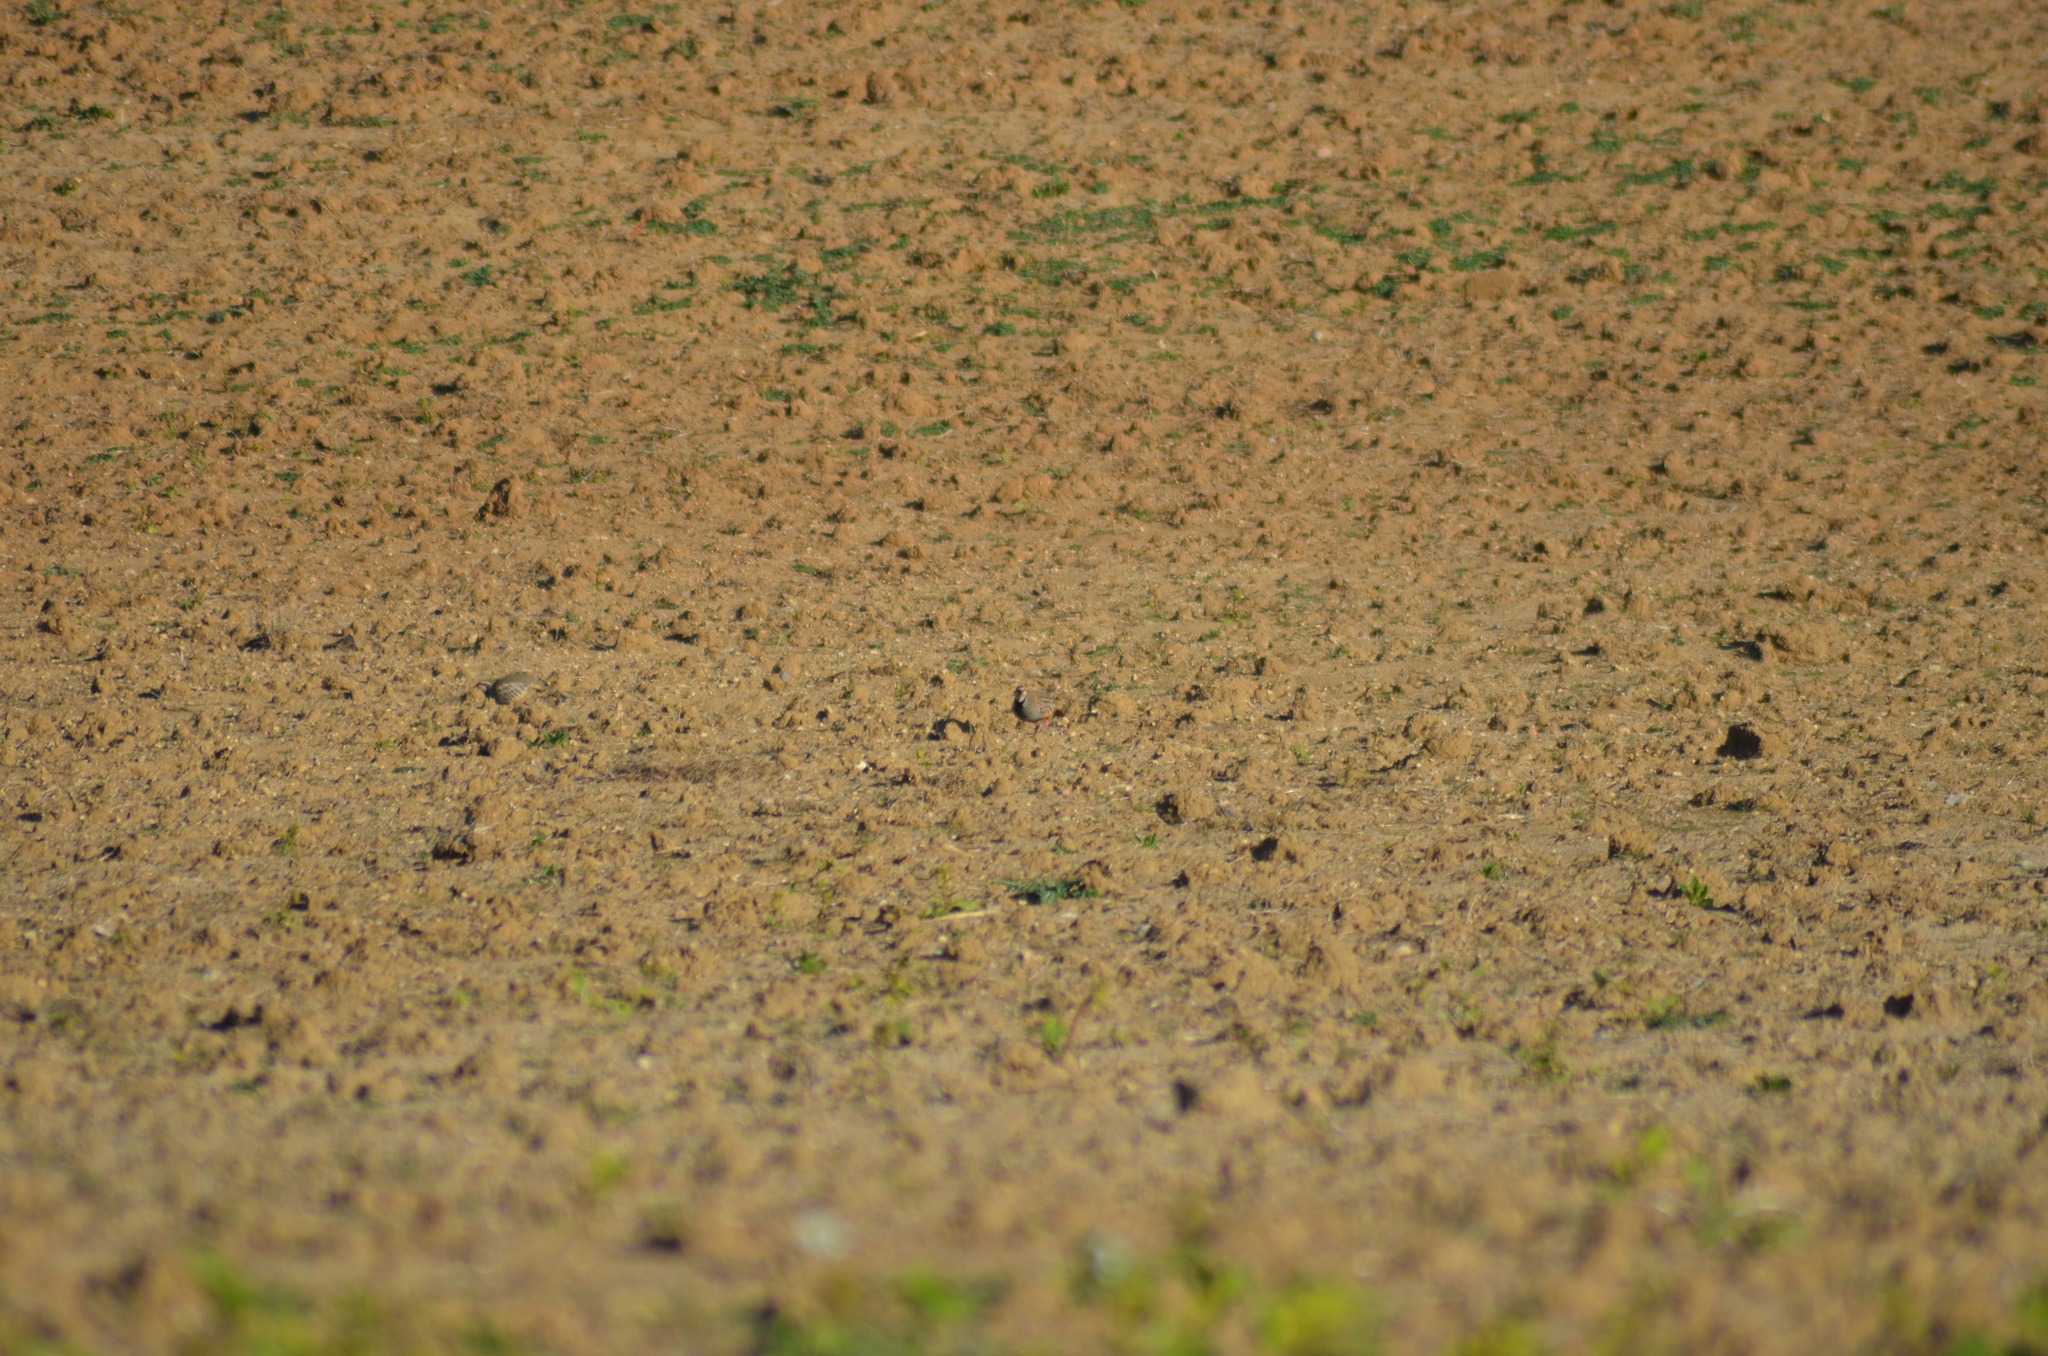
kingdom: Animalia
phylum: Chordata
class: Aves
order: Galliformes
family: Phasianidae
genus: Alectoris
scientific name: Alectoris rufa
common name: Red-legged partridge
